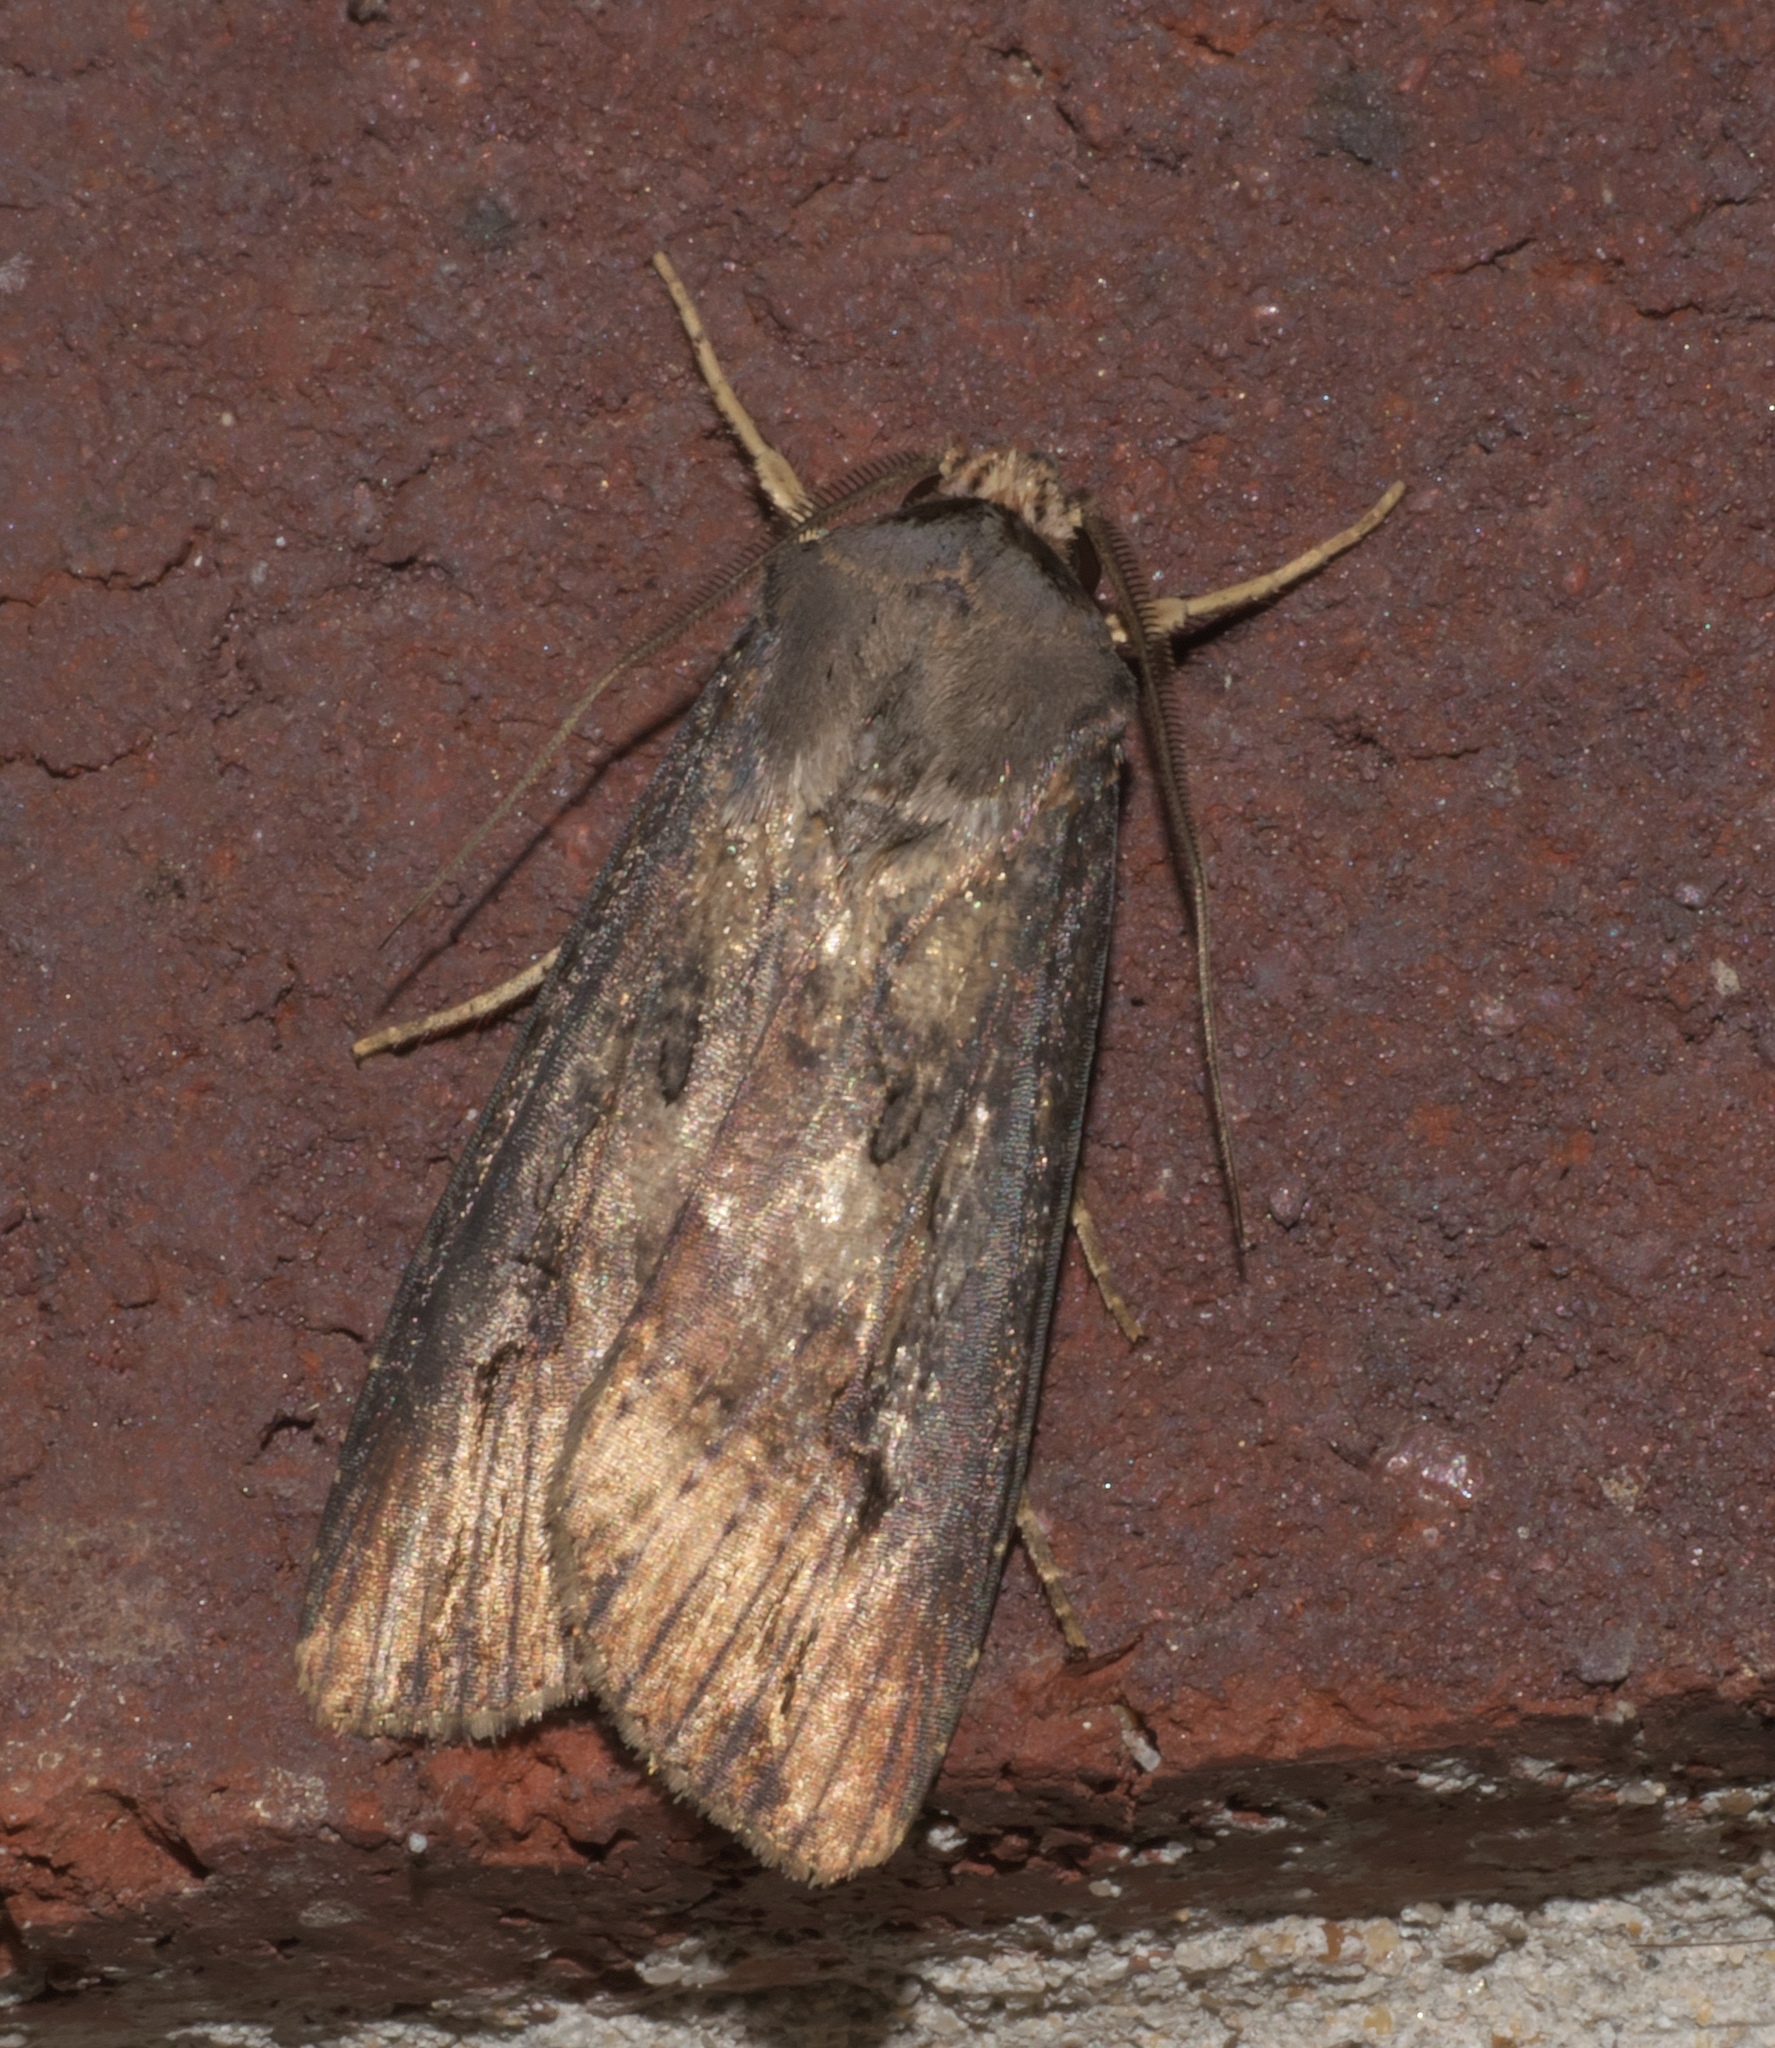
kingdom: Animalia
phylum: Arthropoda
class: Insecta
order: Lepidoptera
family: Noctuidae
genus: Agrotis
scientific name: Agrotis ipsilon
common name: Dark sword-grass
